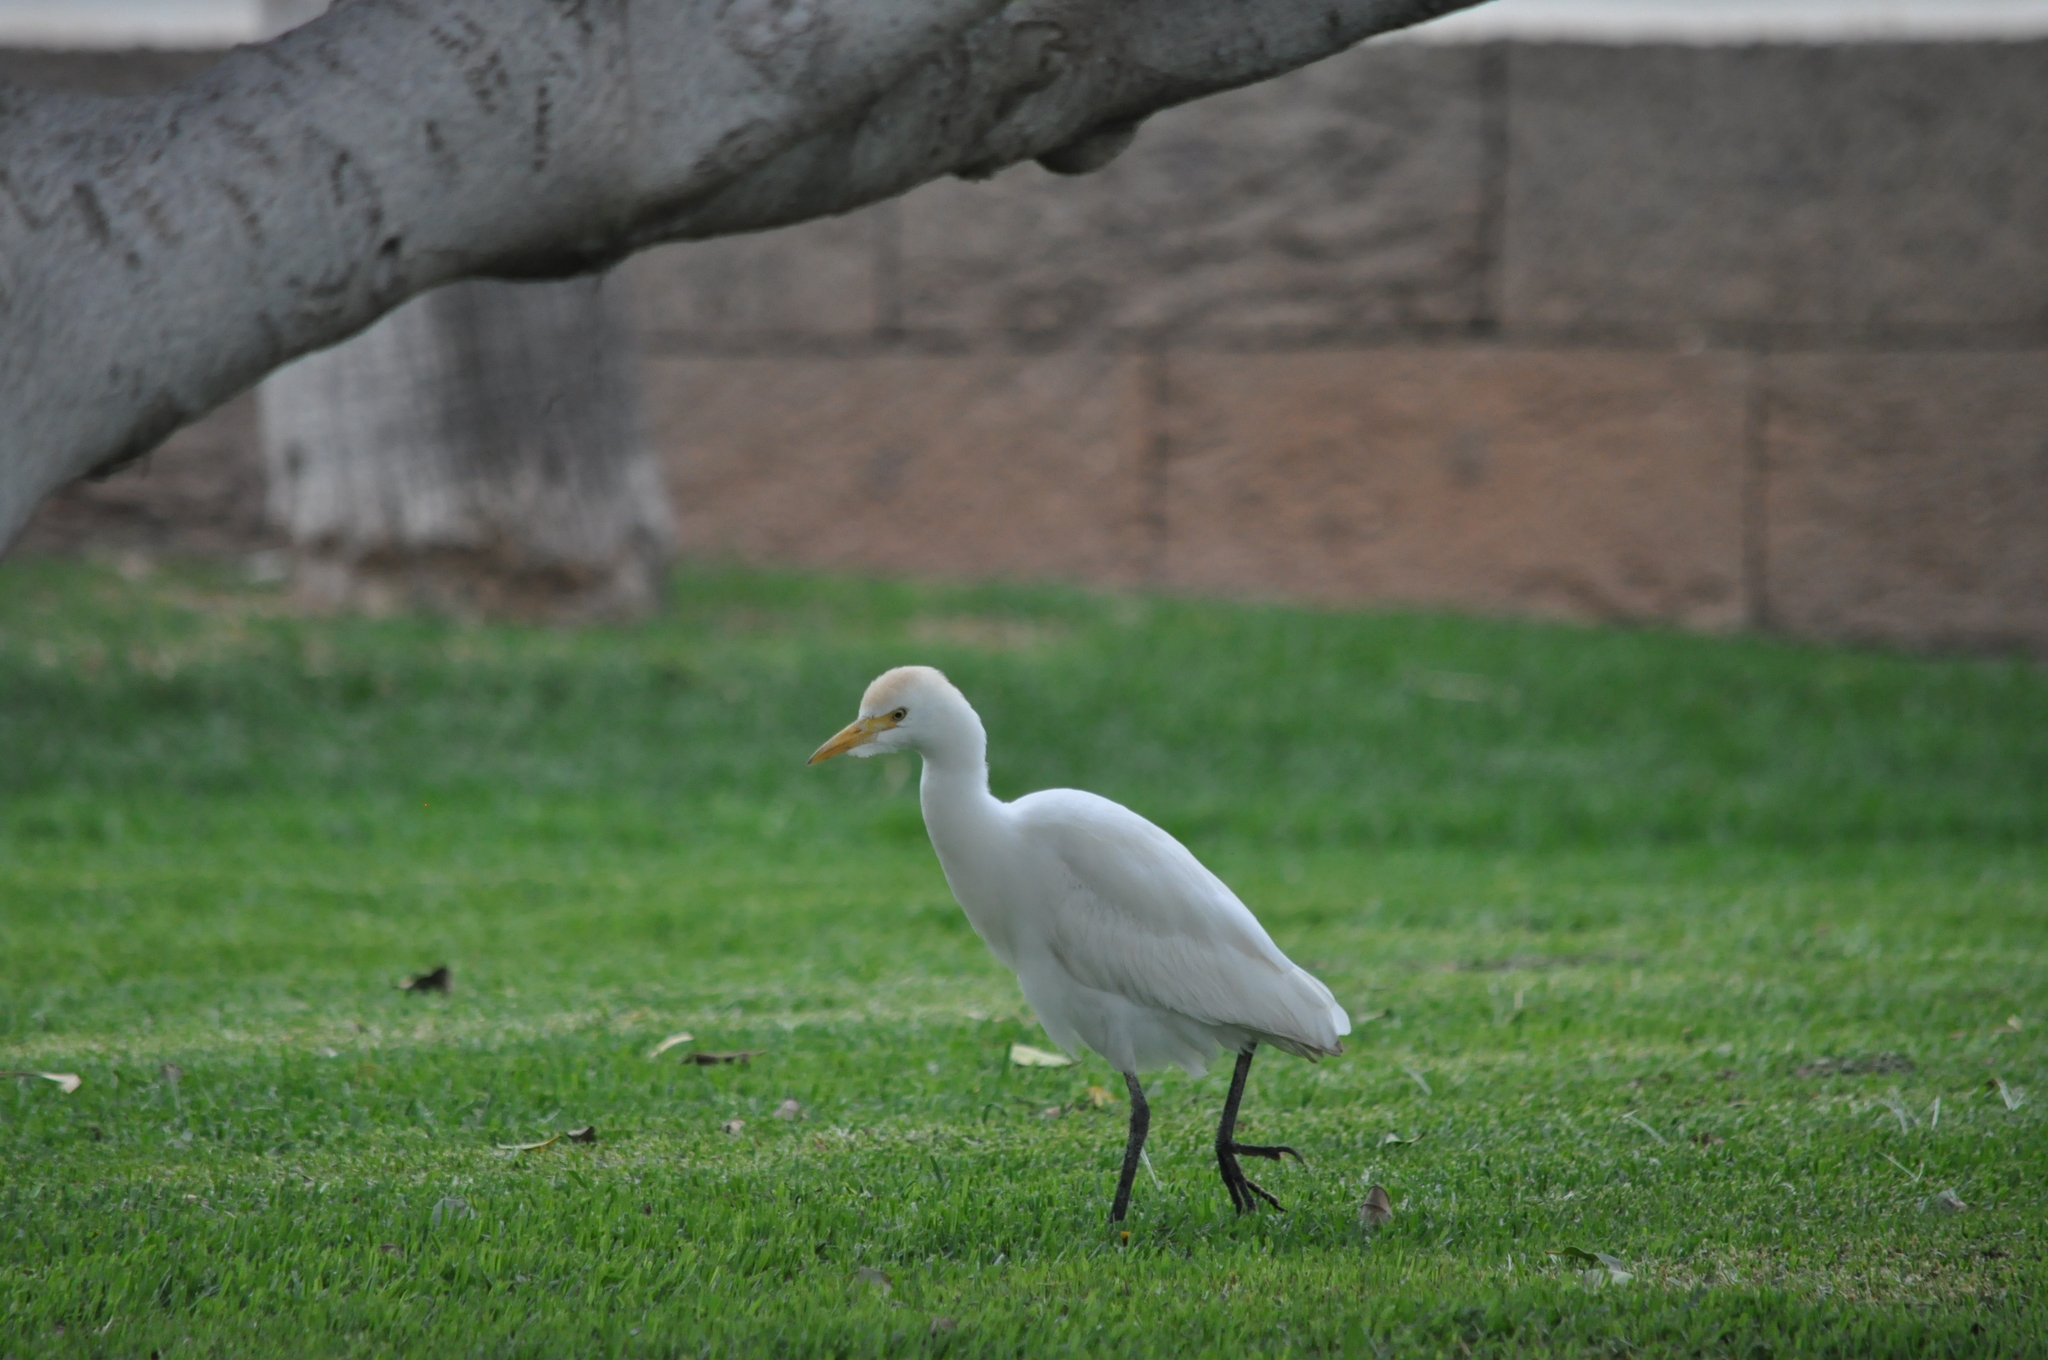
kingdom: Animalia
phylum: Chordata
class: Aves
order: Pelecaniformes
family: Ardeidae
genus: Bubulcus
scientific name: Bubulcus ibis
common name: Cattle egret
